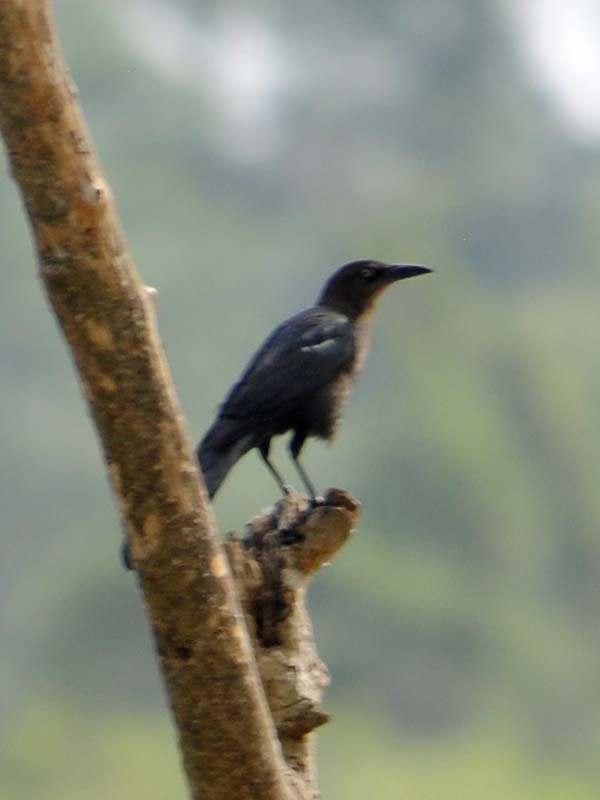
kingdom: Animalia
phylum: Chordata
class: Aves
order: Passeriformes
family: Icteridae
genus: Quiscalus
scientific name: Quiscalus mexicanus
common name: Great-tailed grackle
